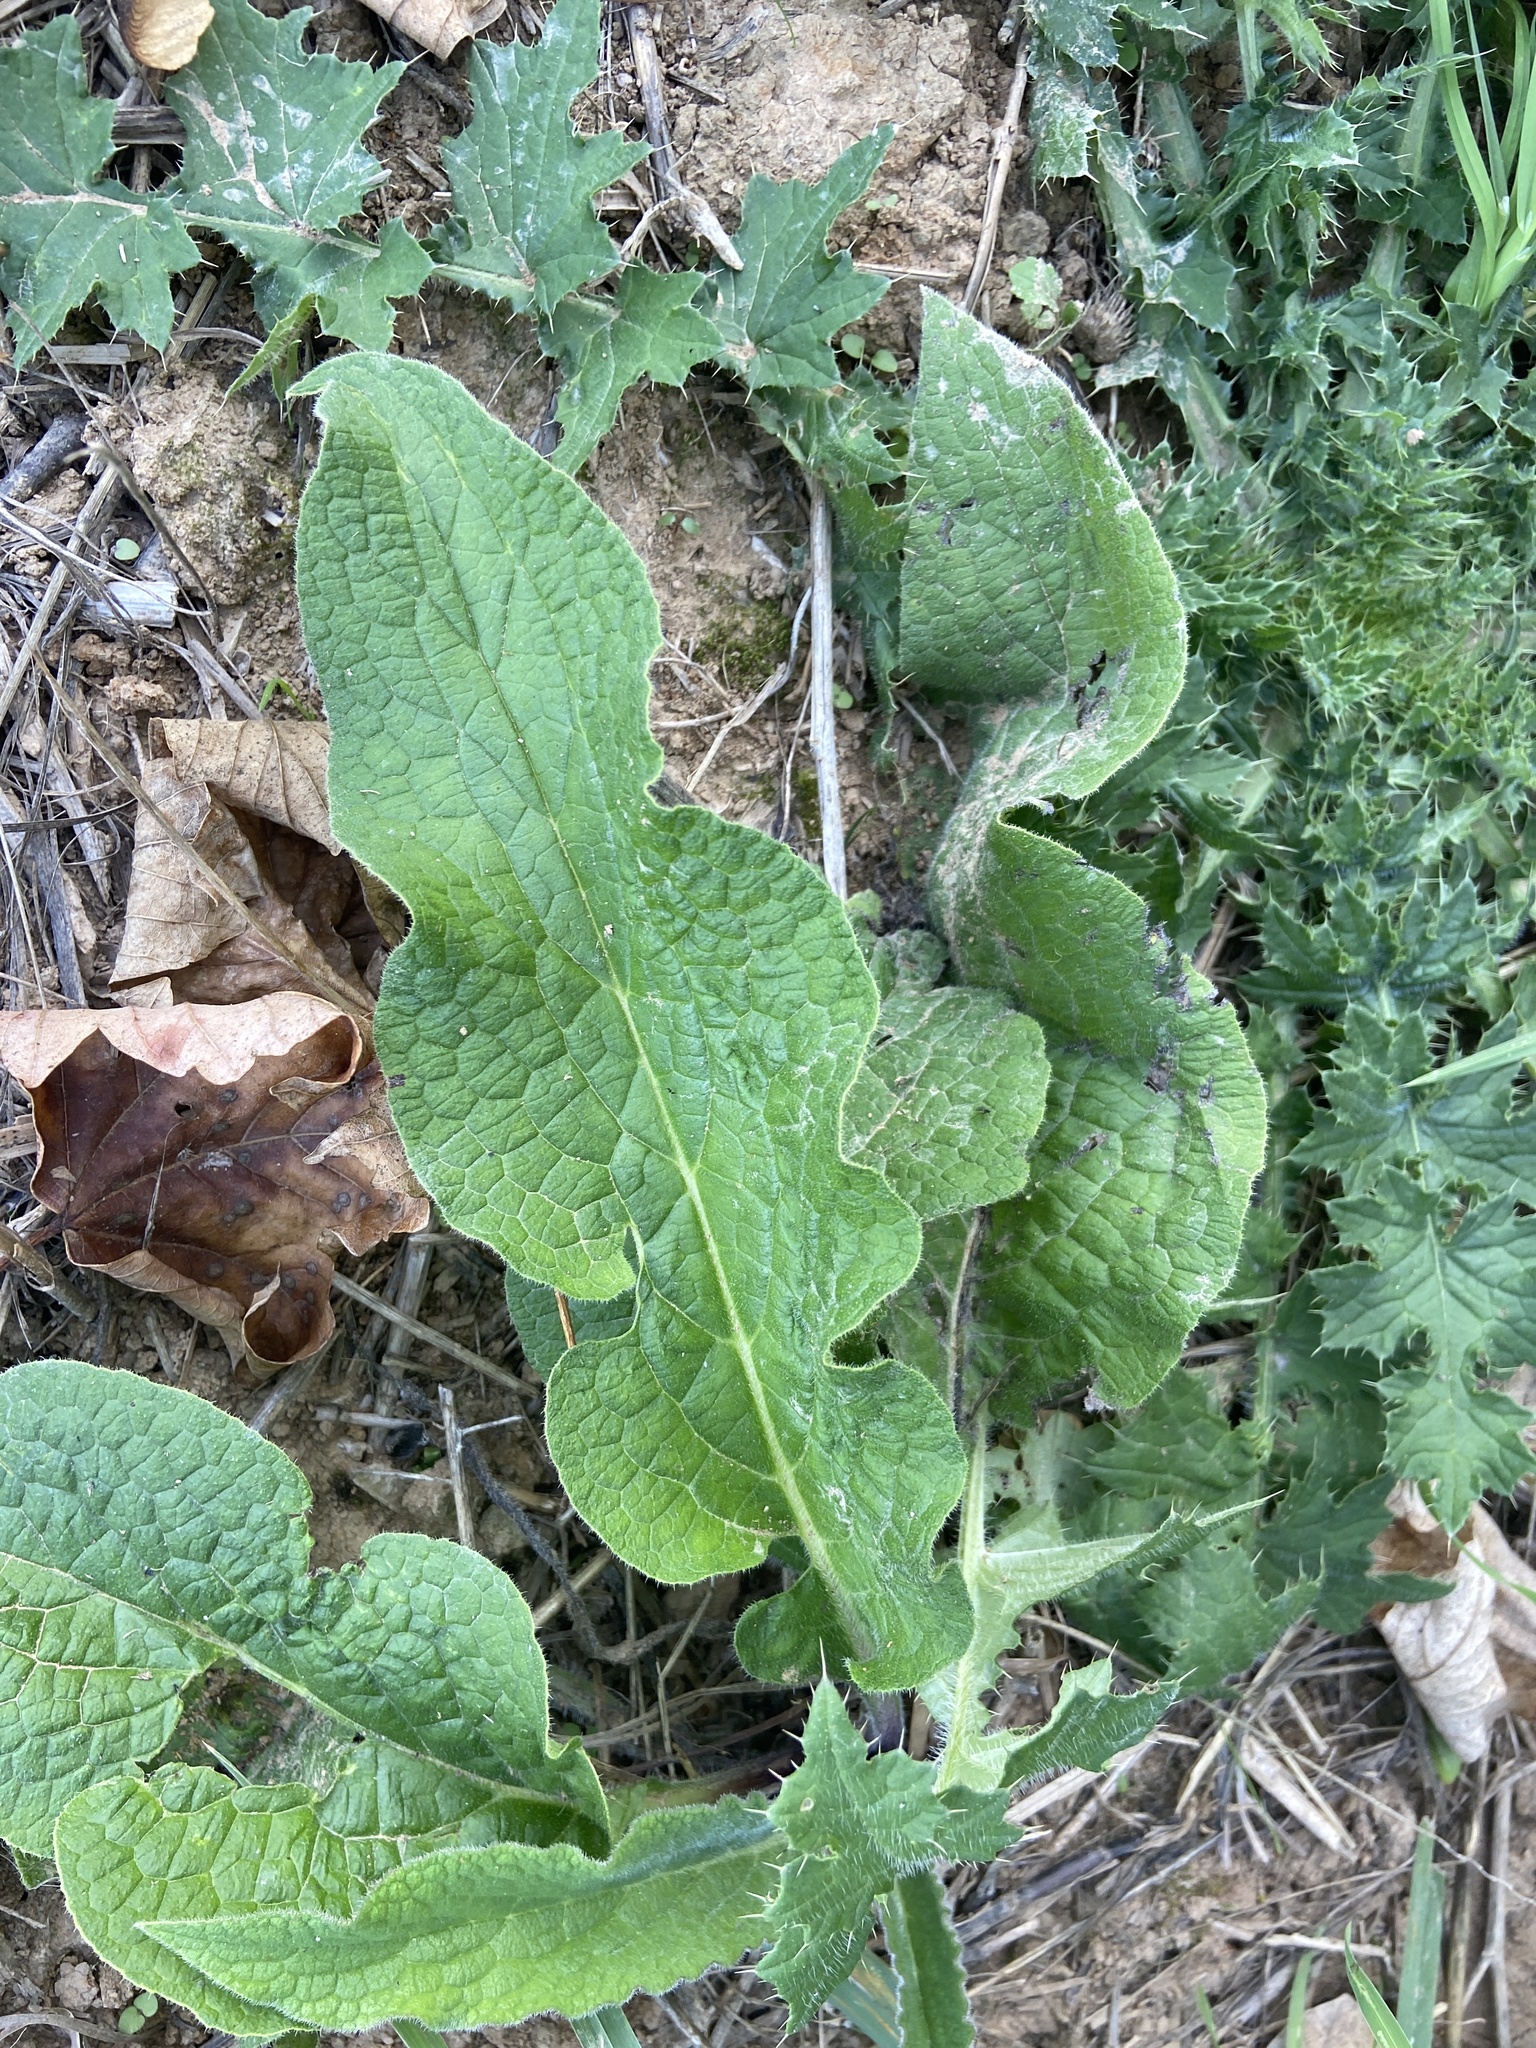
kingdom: Plantae
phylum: Tracheophyta
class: Magnoliopsida
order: Boraginales
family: Boraginaceae
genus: Symphytum
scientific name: Symphytum officinale
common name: Common comfrey
